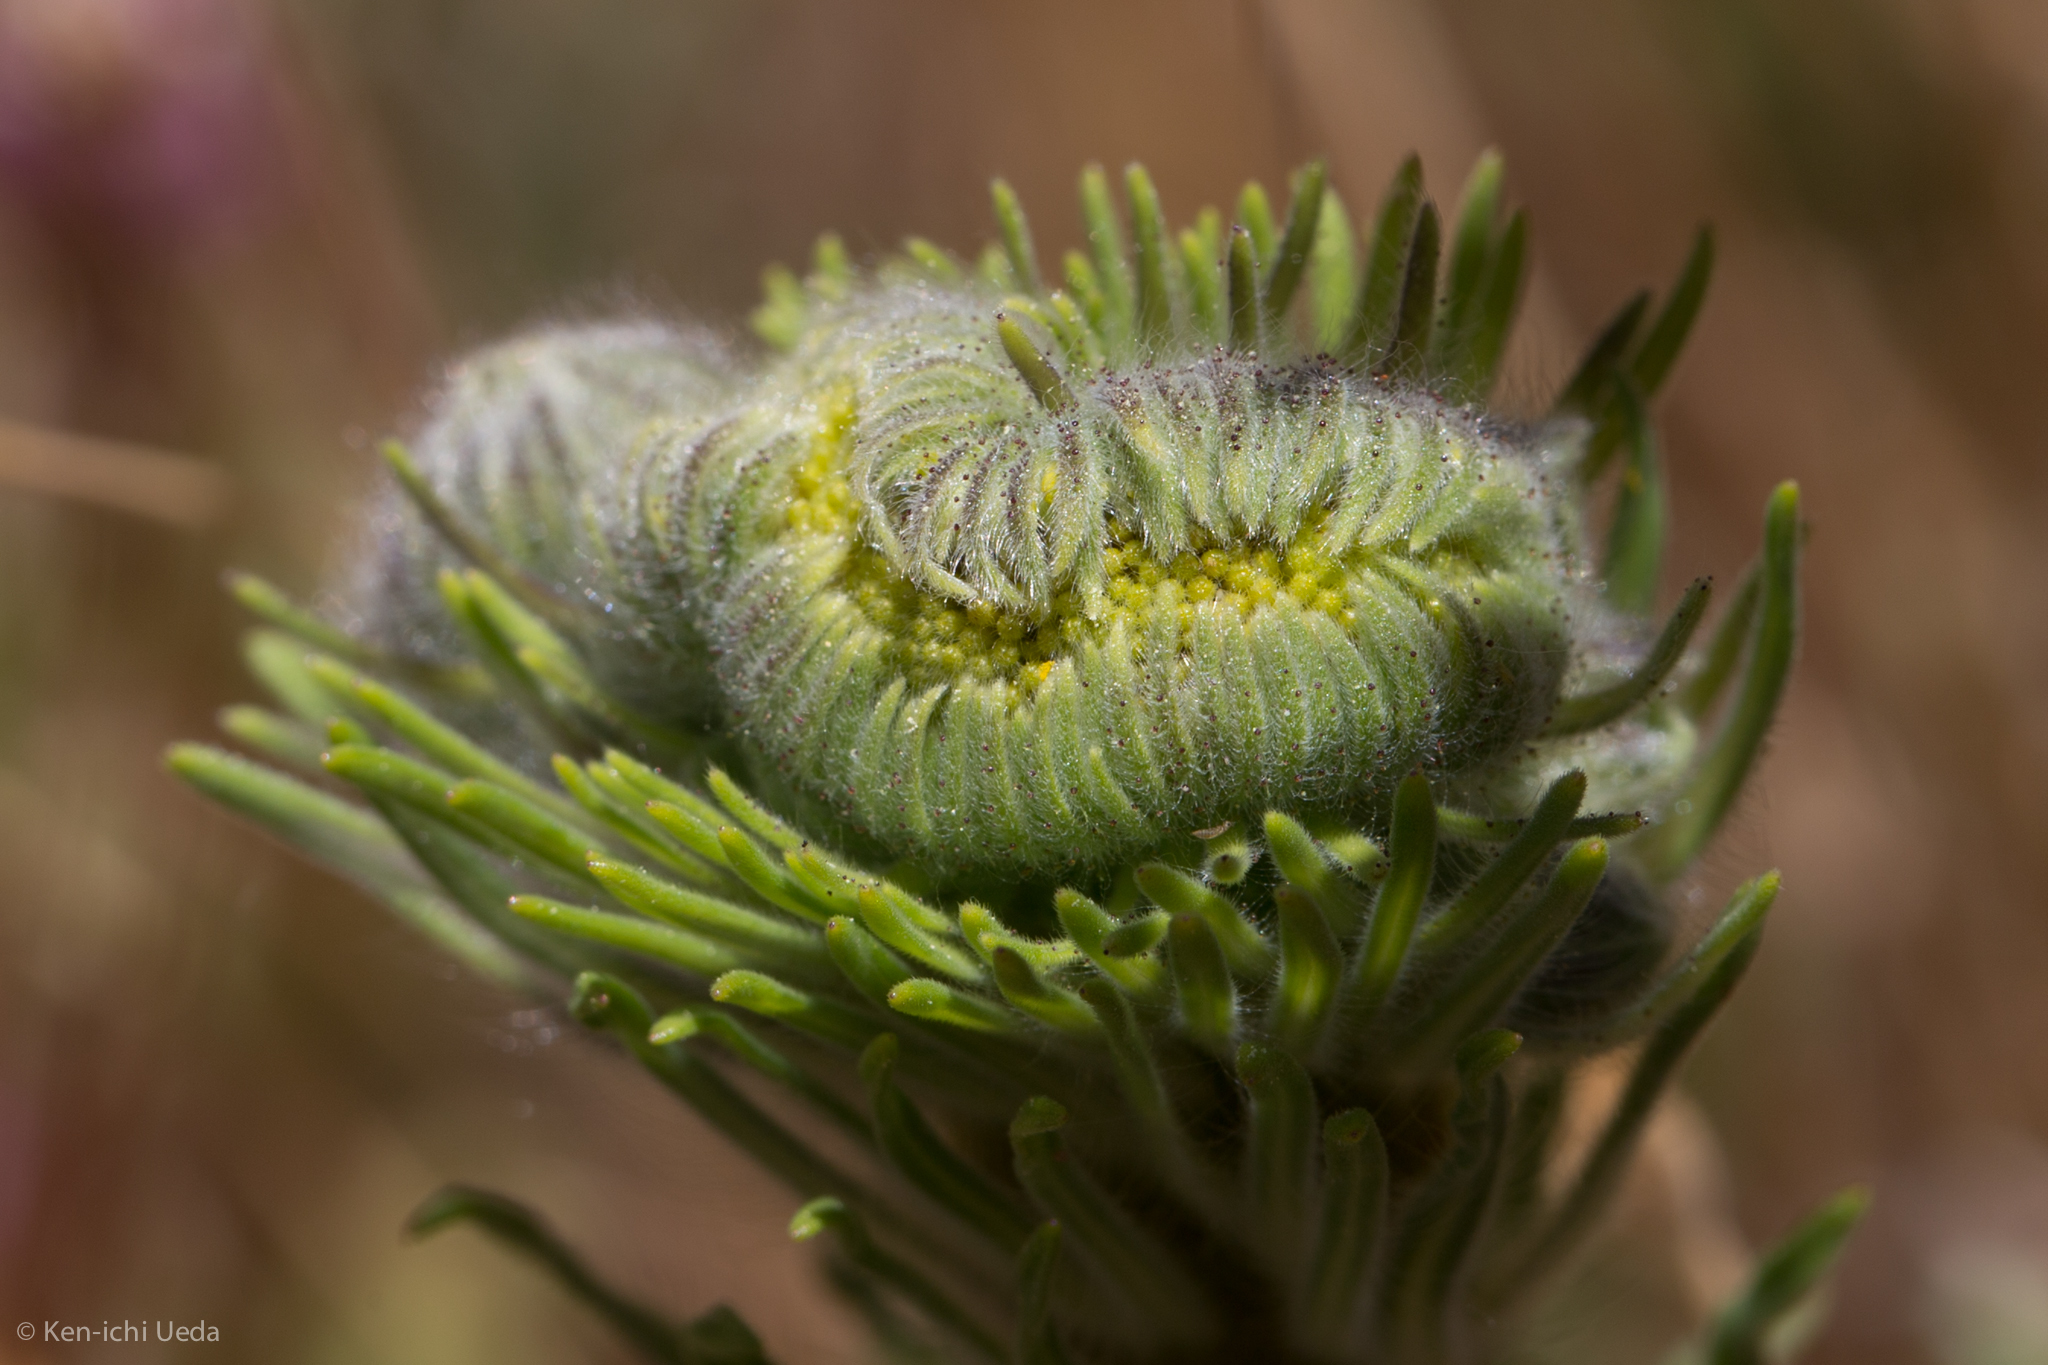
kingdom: Plantae
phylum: Tracheophyta
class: Magnoliopsida
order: Asterales
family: Asteraceae
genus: Madia
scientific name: Madia elegans
